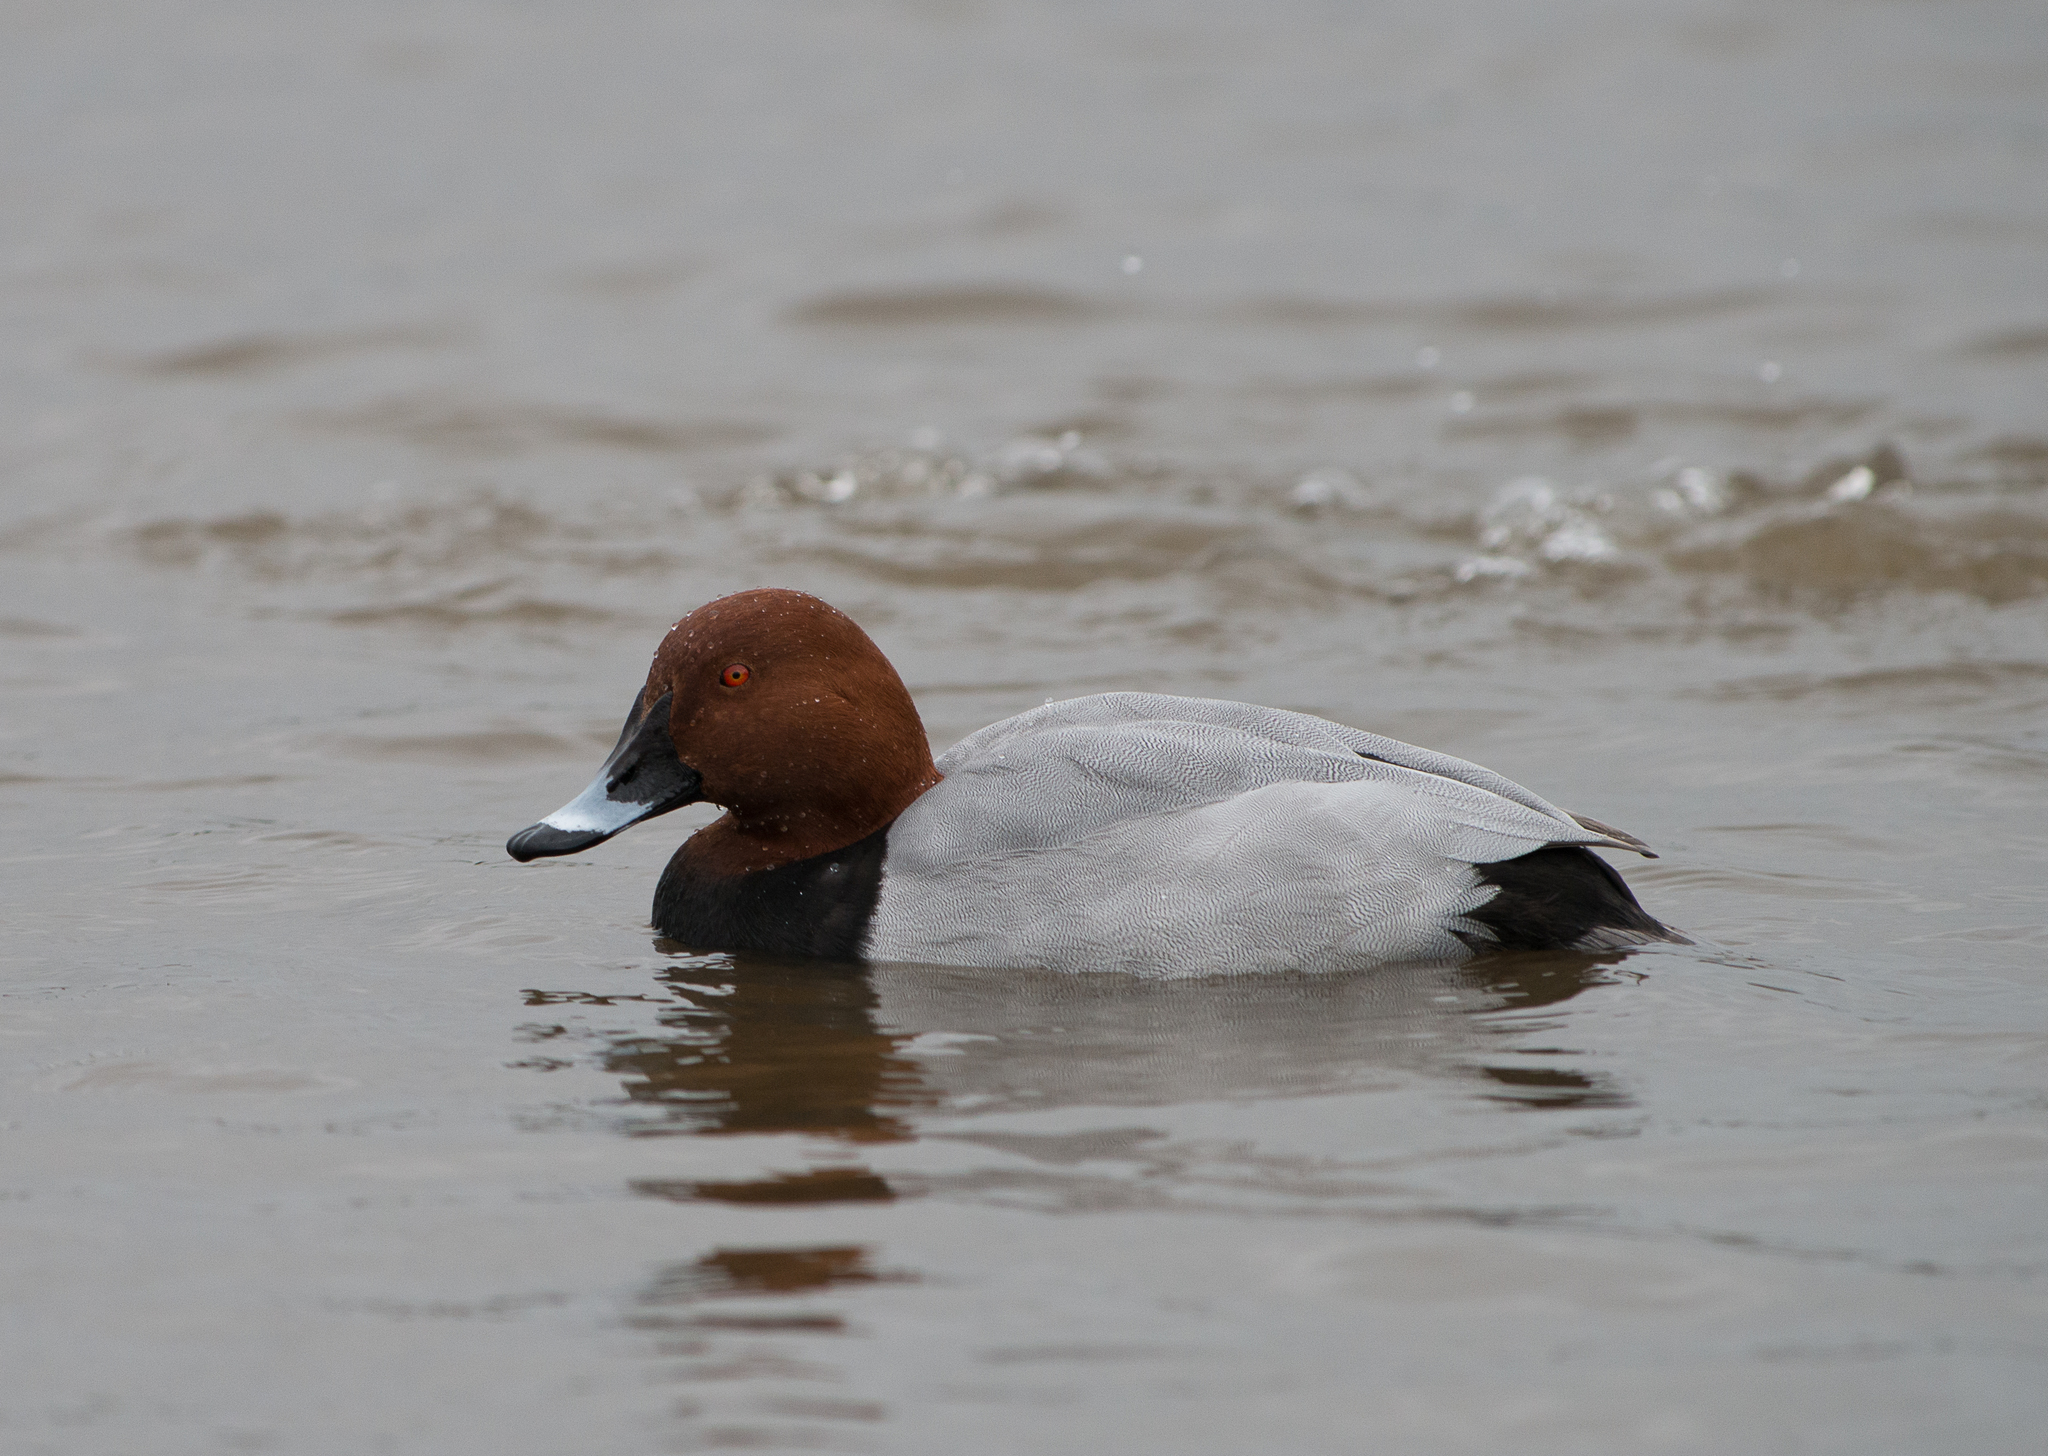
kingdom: Animalia
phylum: Chordata
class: Aves
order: Anseriformes
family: Anatidae
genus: Aythya
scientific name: Aythya ferina
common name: Common pochard
